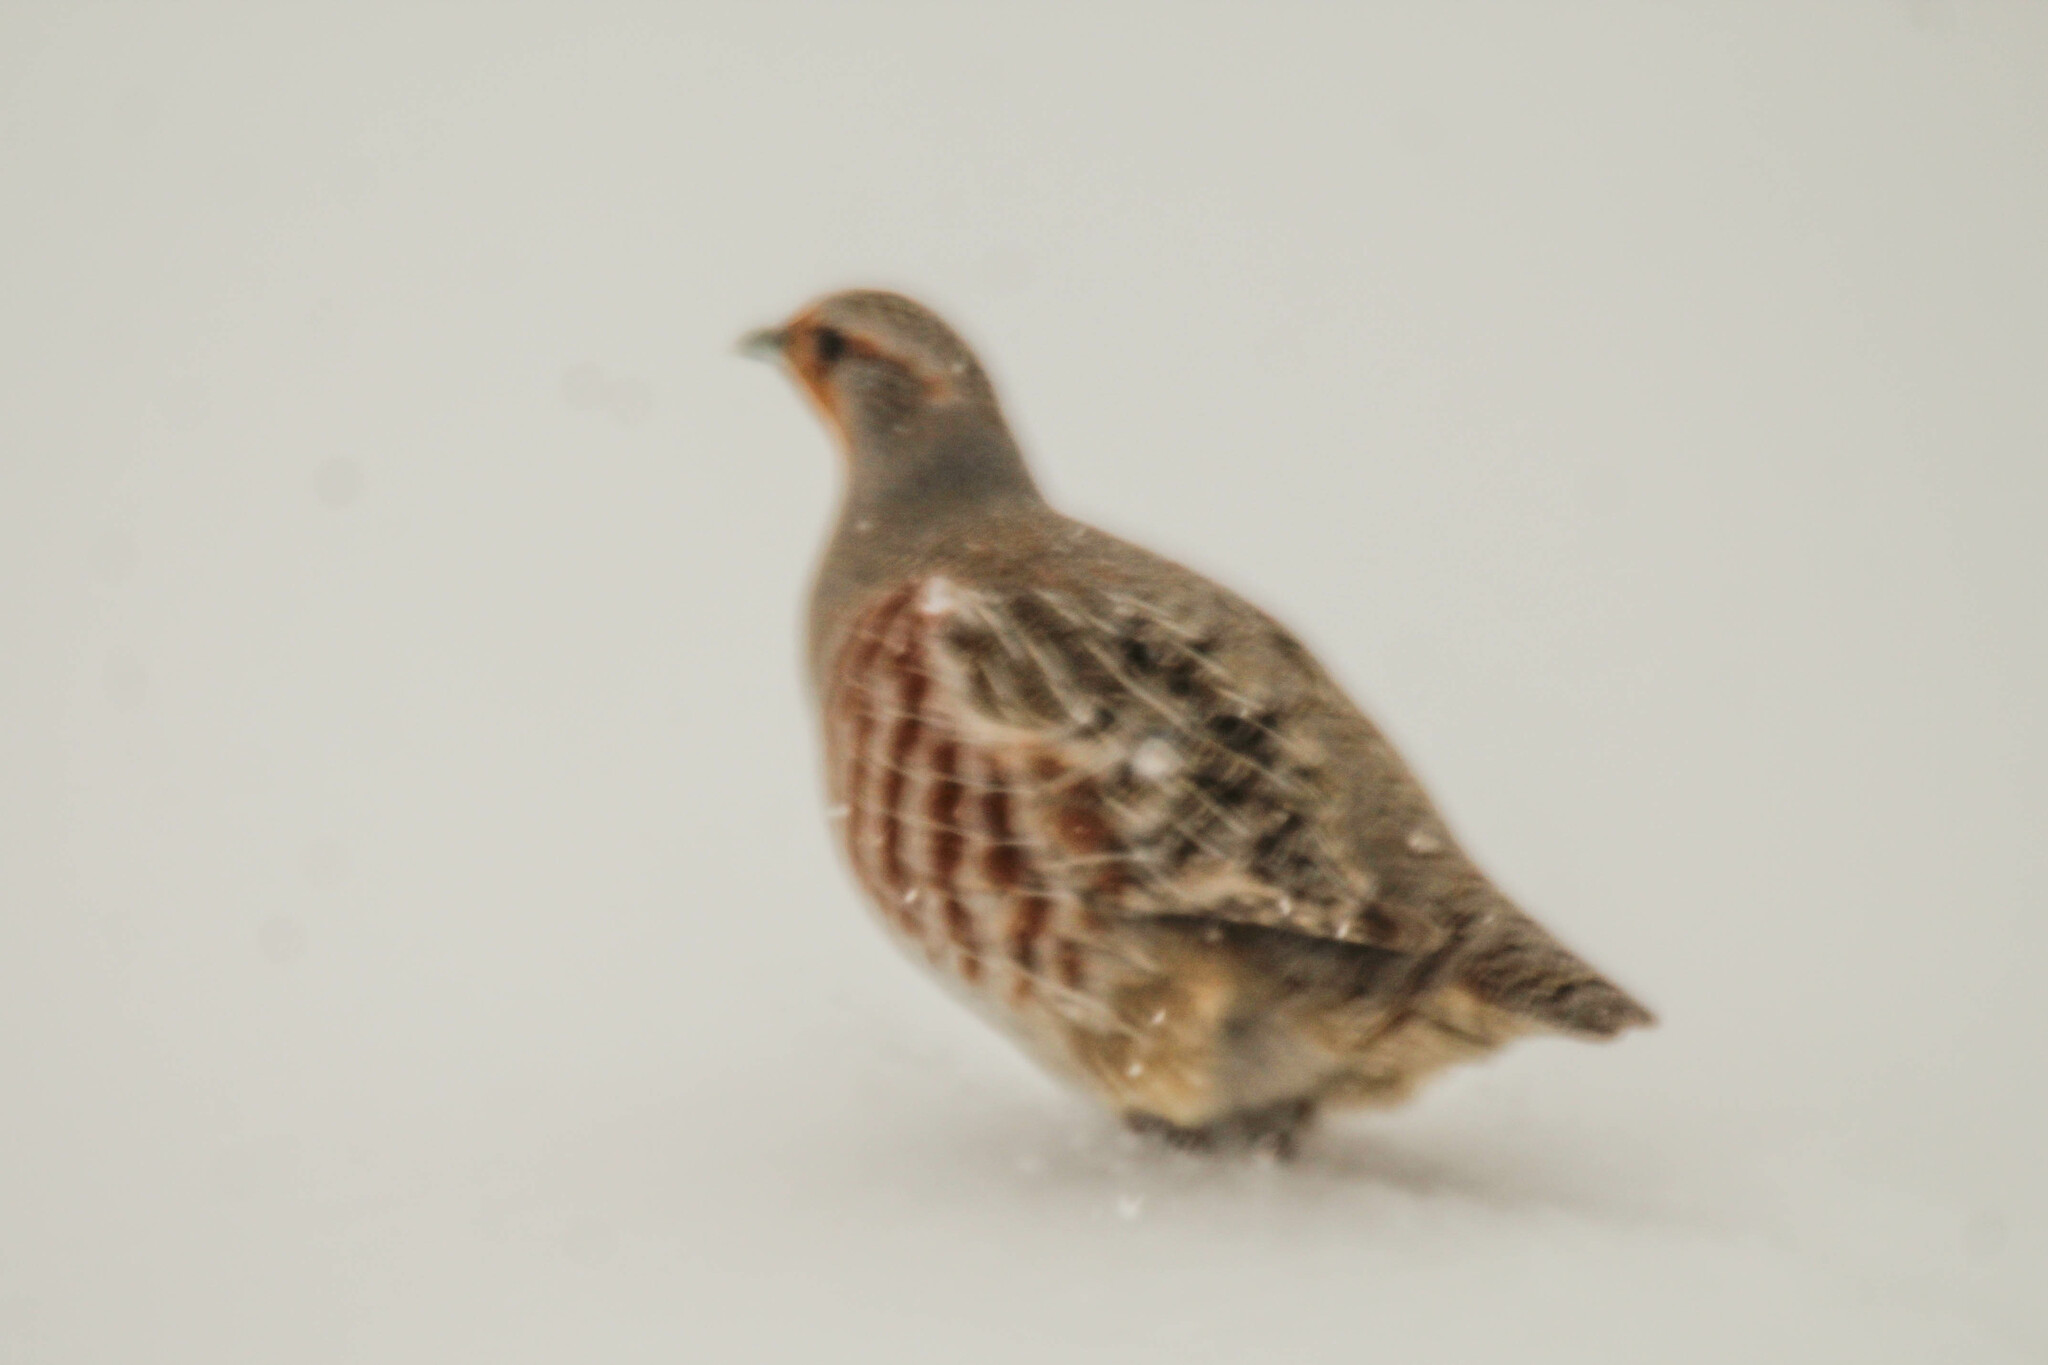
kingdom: Animalia
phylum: Chordata
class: Aves
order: Galliformes
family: Phasianidae
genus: Perdix
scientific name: Perdix perdix
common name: Grey partridge
